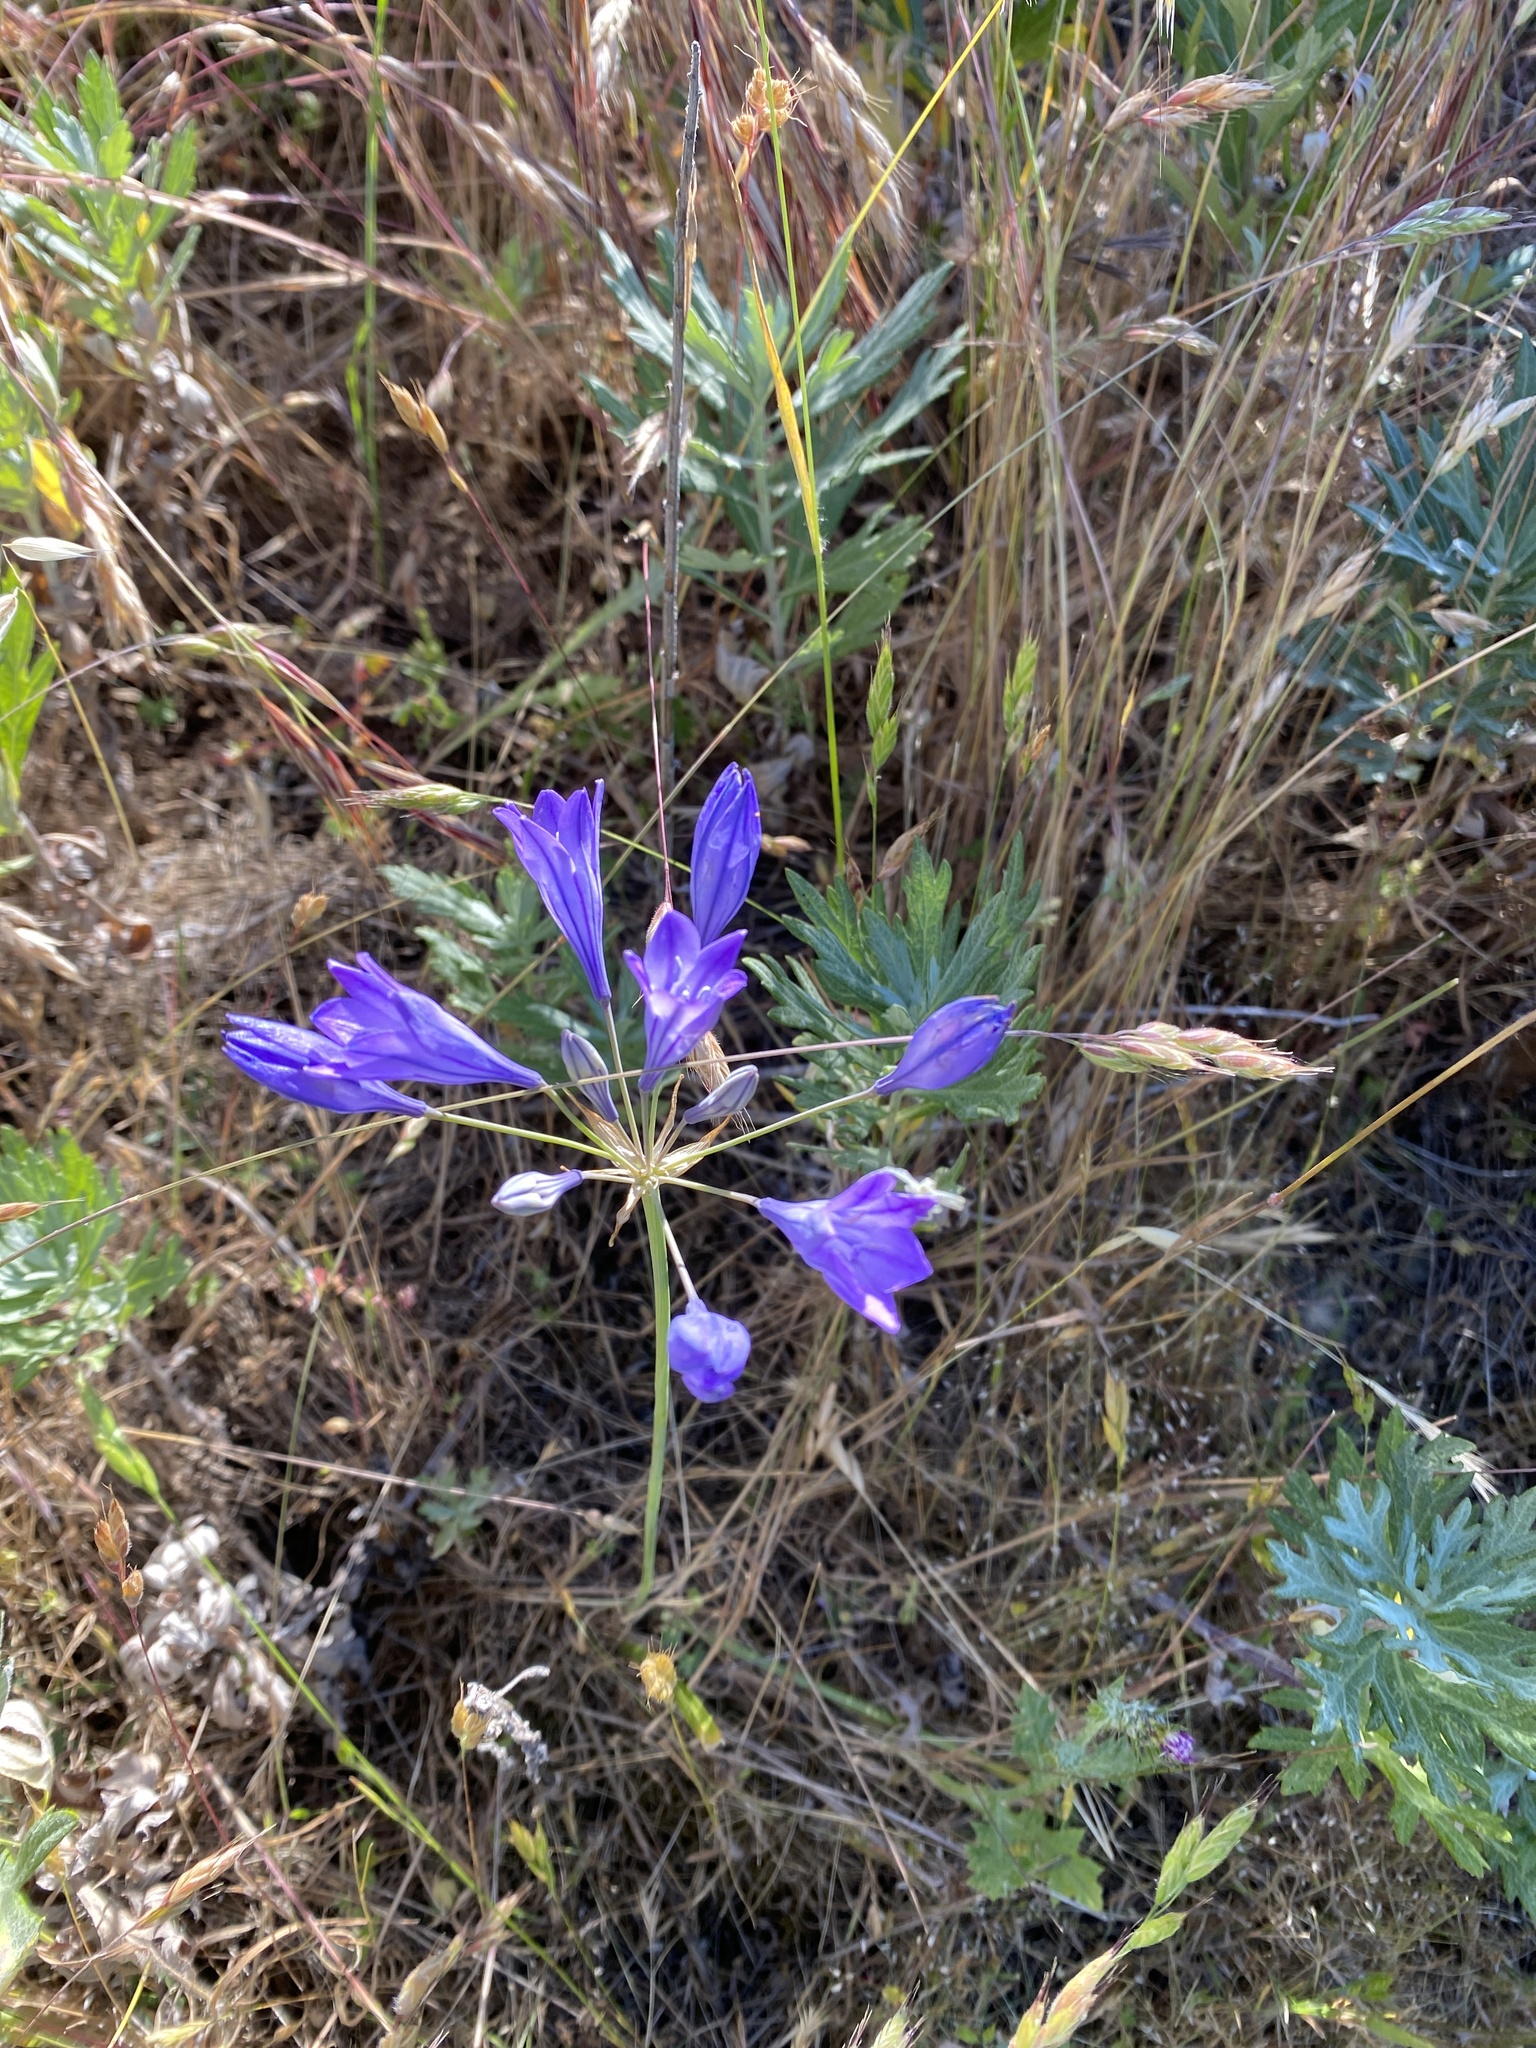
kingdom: Plantae
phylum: Tracheophyta
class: Liliopsida
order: Asparagales
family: Asparagaceae
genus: Triteleia
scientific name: Triteleia laxa
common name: Triplet-lily
